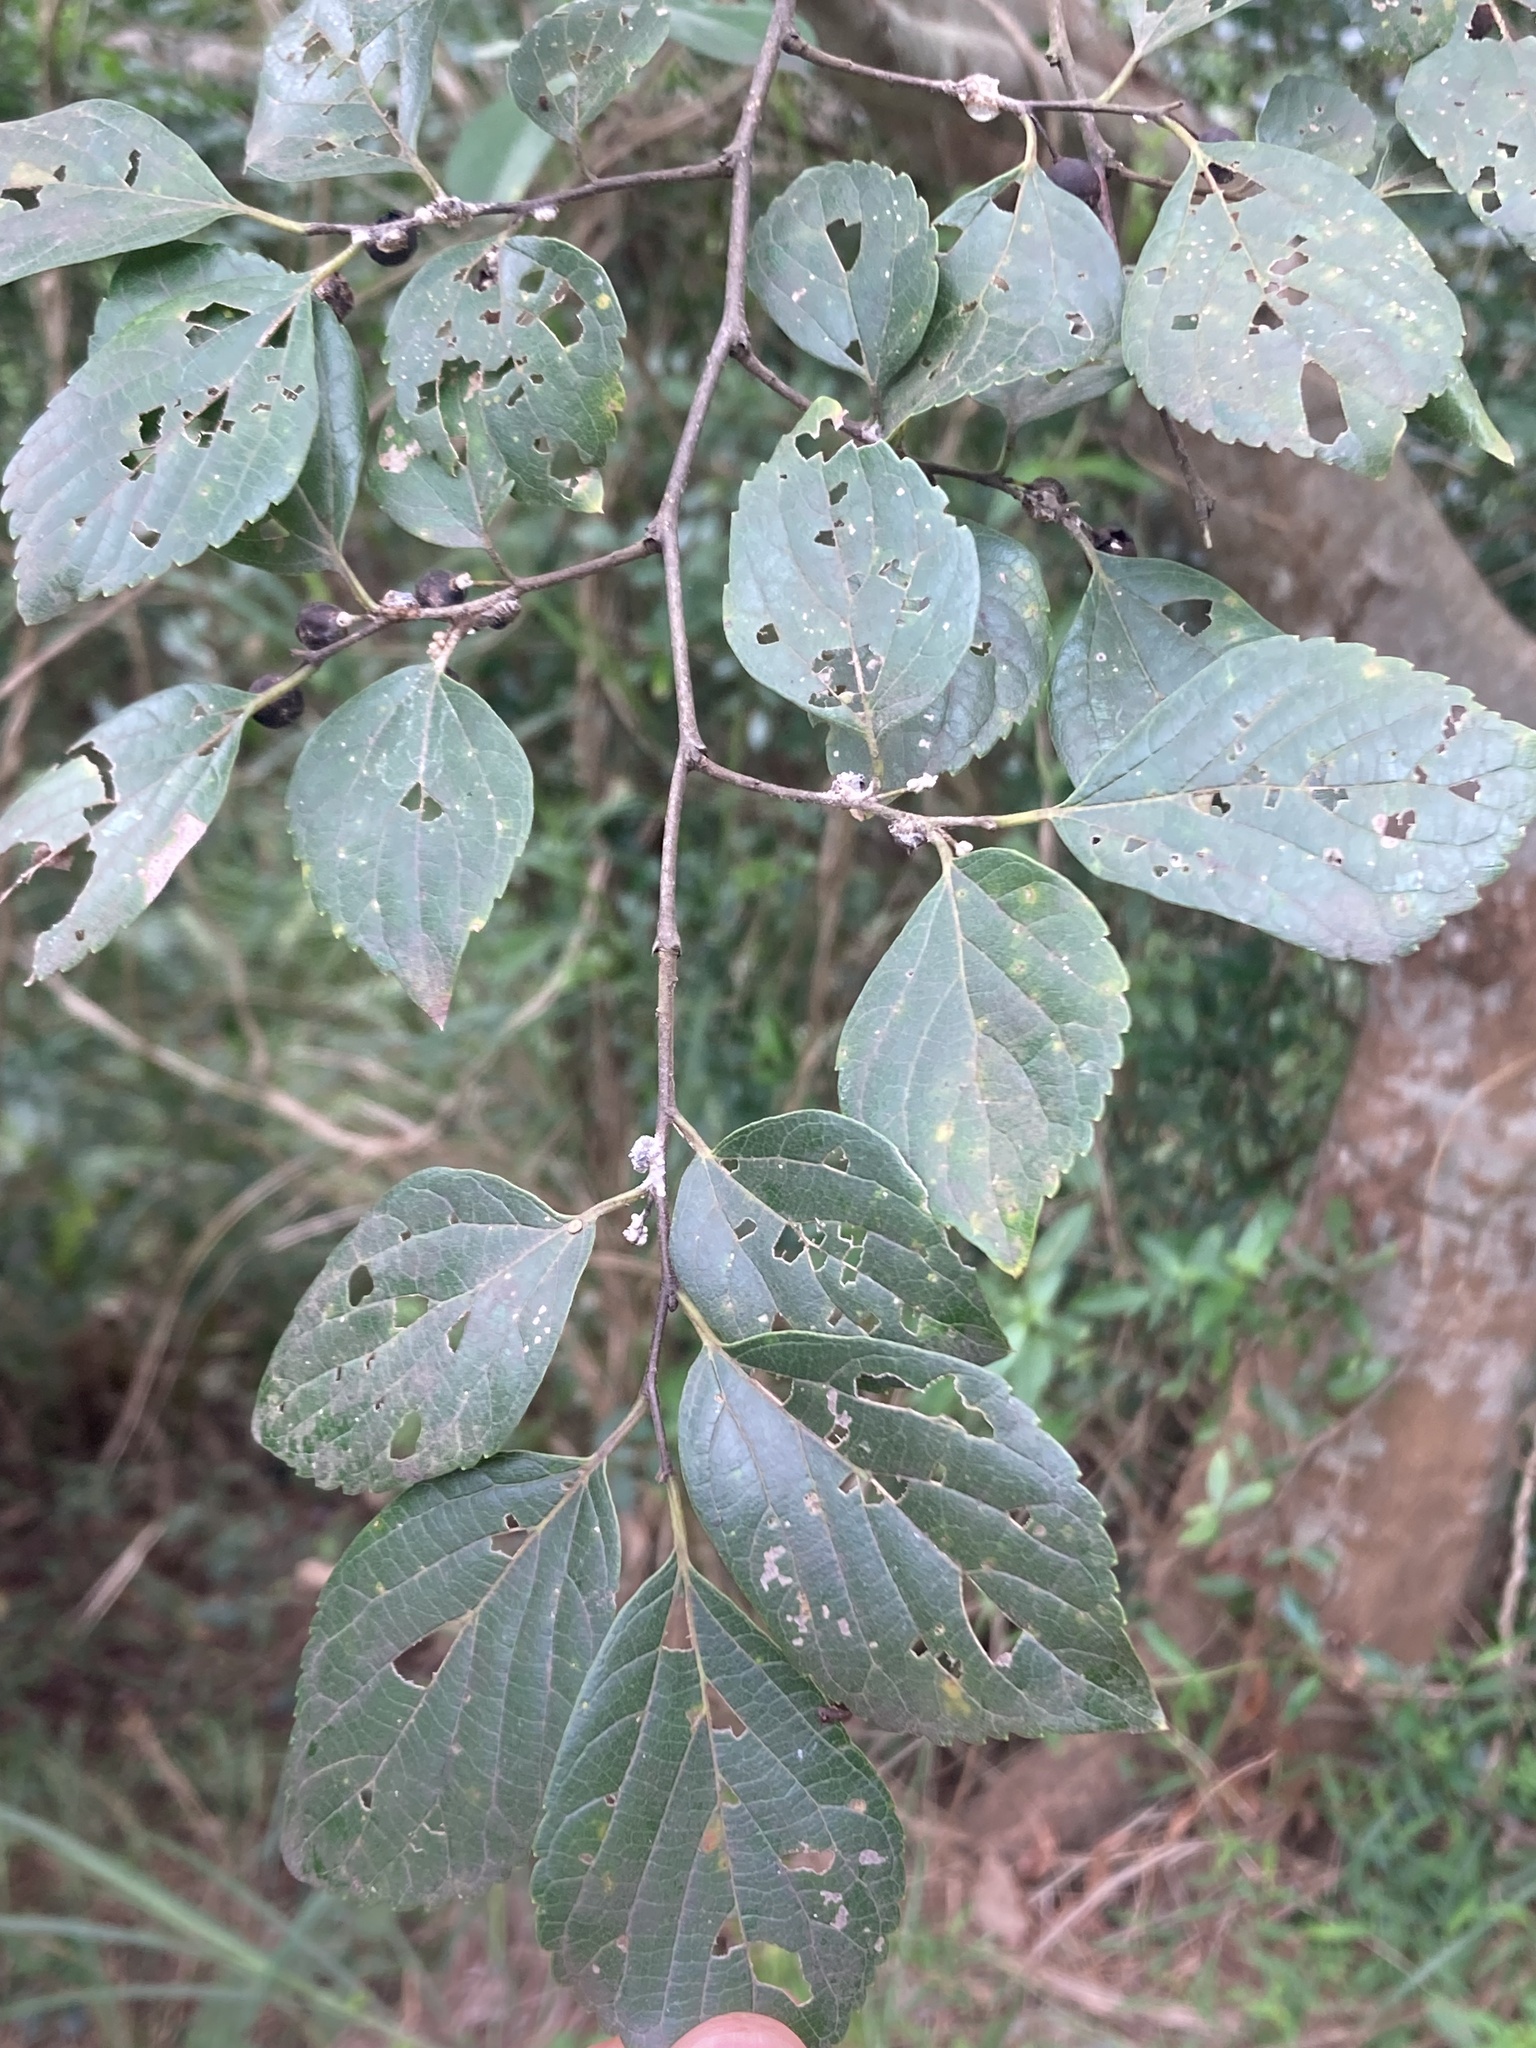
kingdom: Plantae
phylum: Tracheophyta
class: Magnoliopsida
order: Rosales
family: Cannabaceae
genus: Celtis
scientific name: Celtis sinensis
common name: Chinese hackberry
